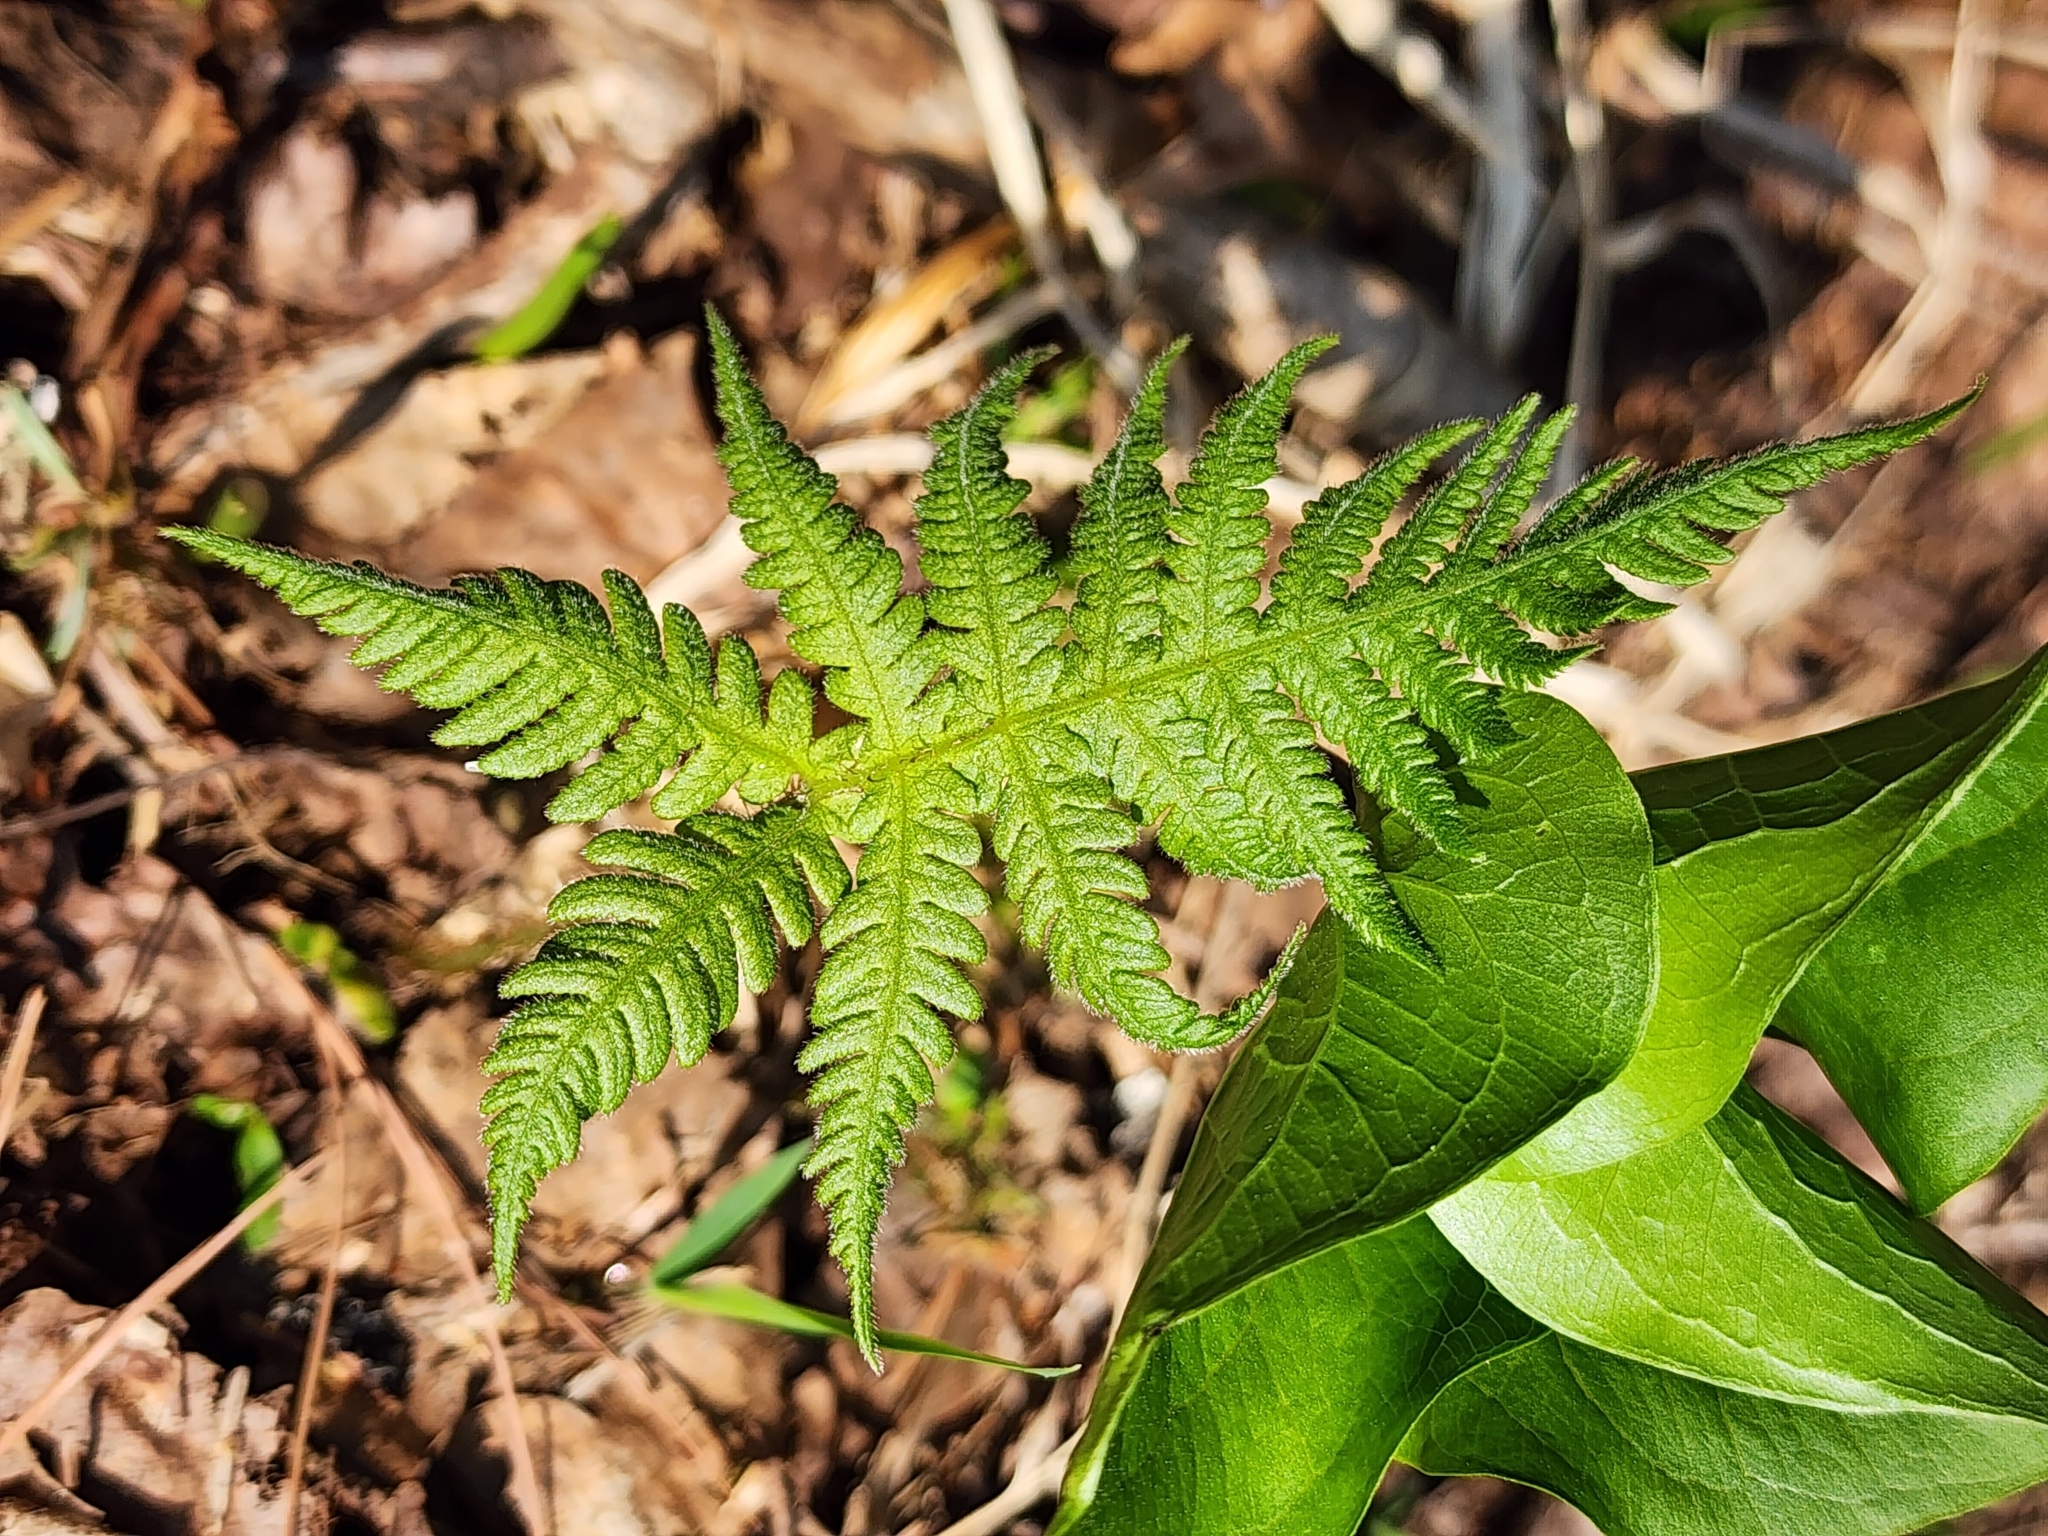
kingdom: Plantae
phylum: Tracheophyta
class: Polypodiopsida
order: Polypodiales
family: Thelypteridaceae
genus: Phegopteris
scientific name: Phegopteris connectilis
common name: Beech fern
